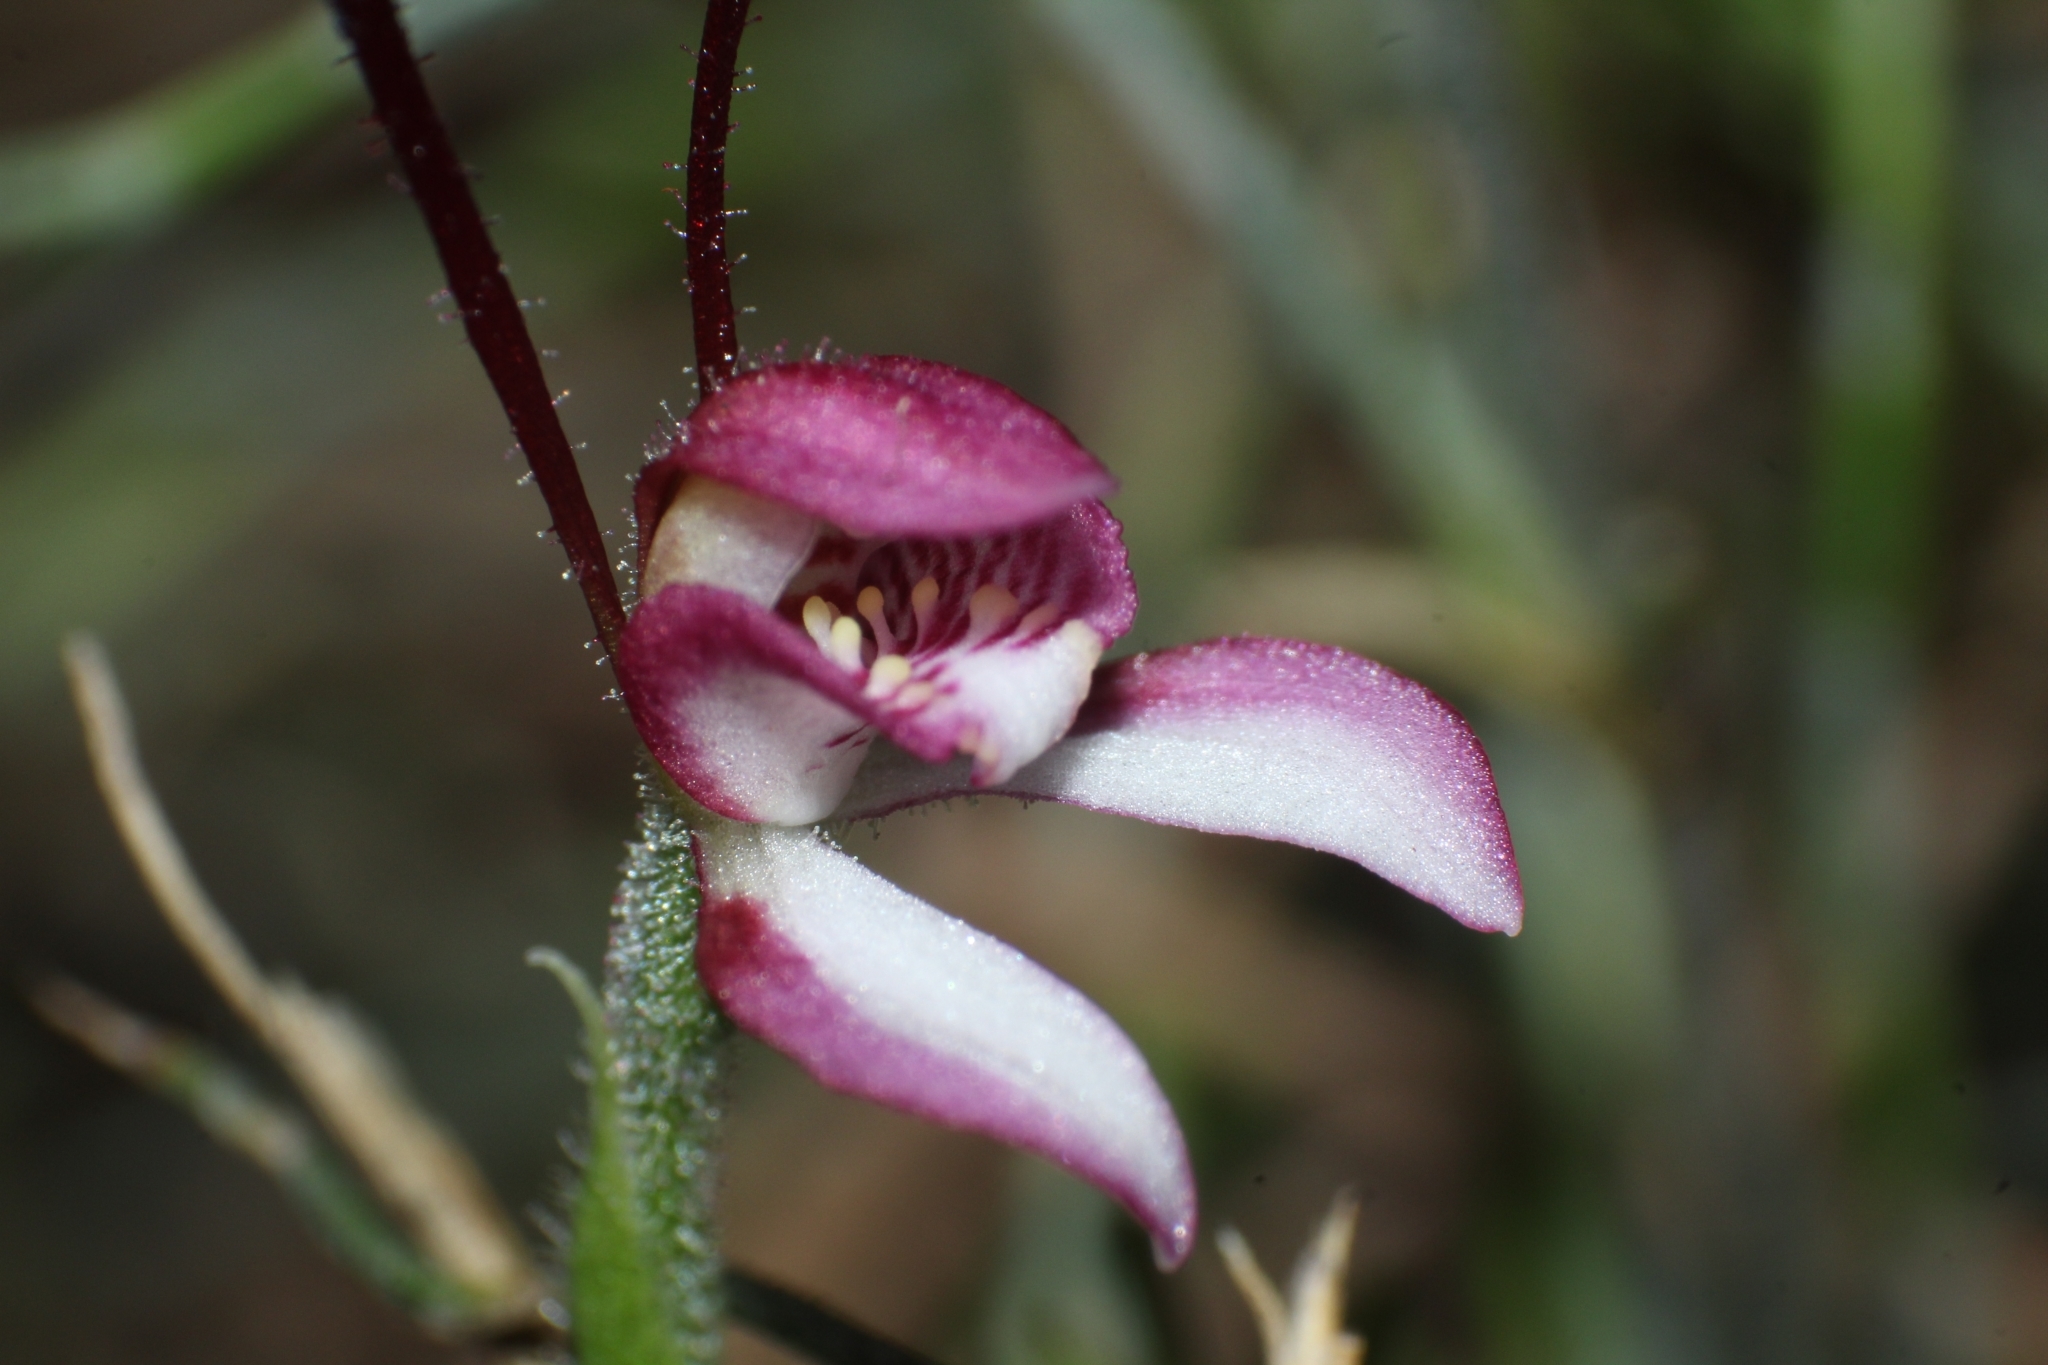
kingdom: Plantae
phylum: Tracheophyta
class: Liliopsida
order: Asparagales
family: Orchidaceae
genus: Leptoceras
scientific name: Leptoceras menziesii
